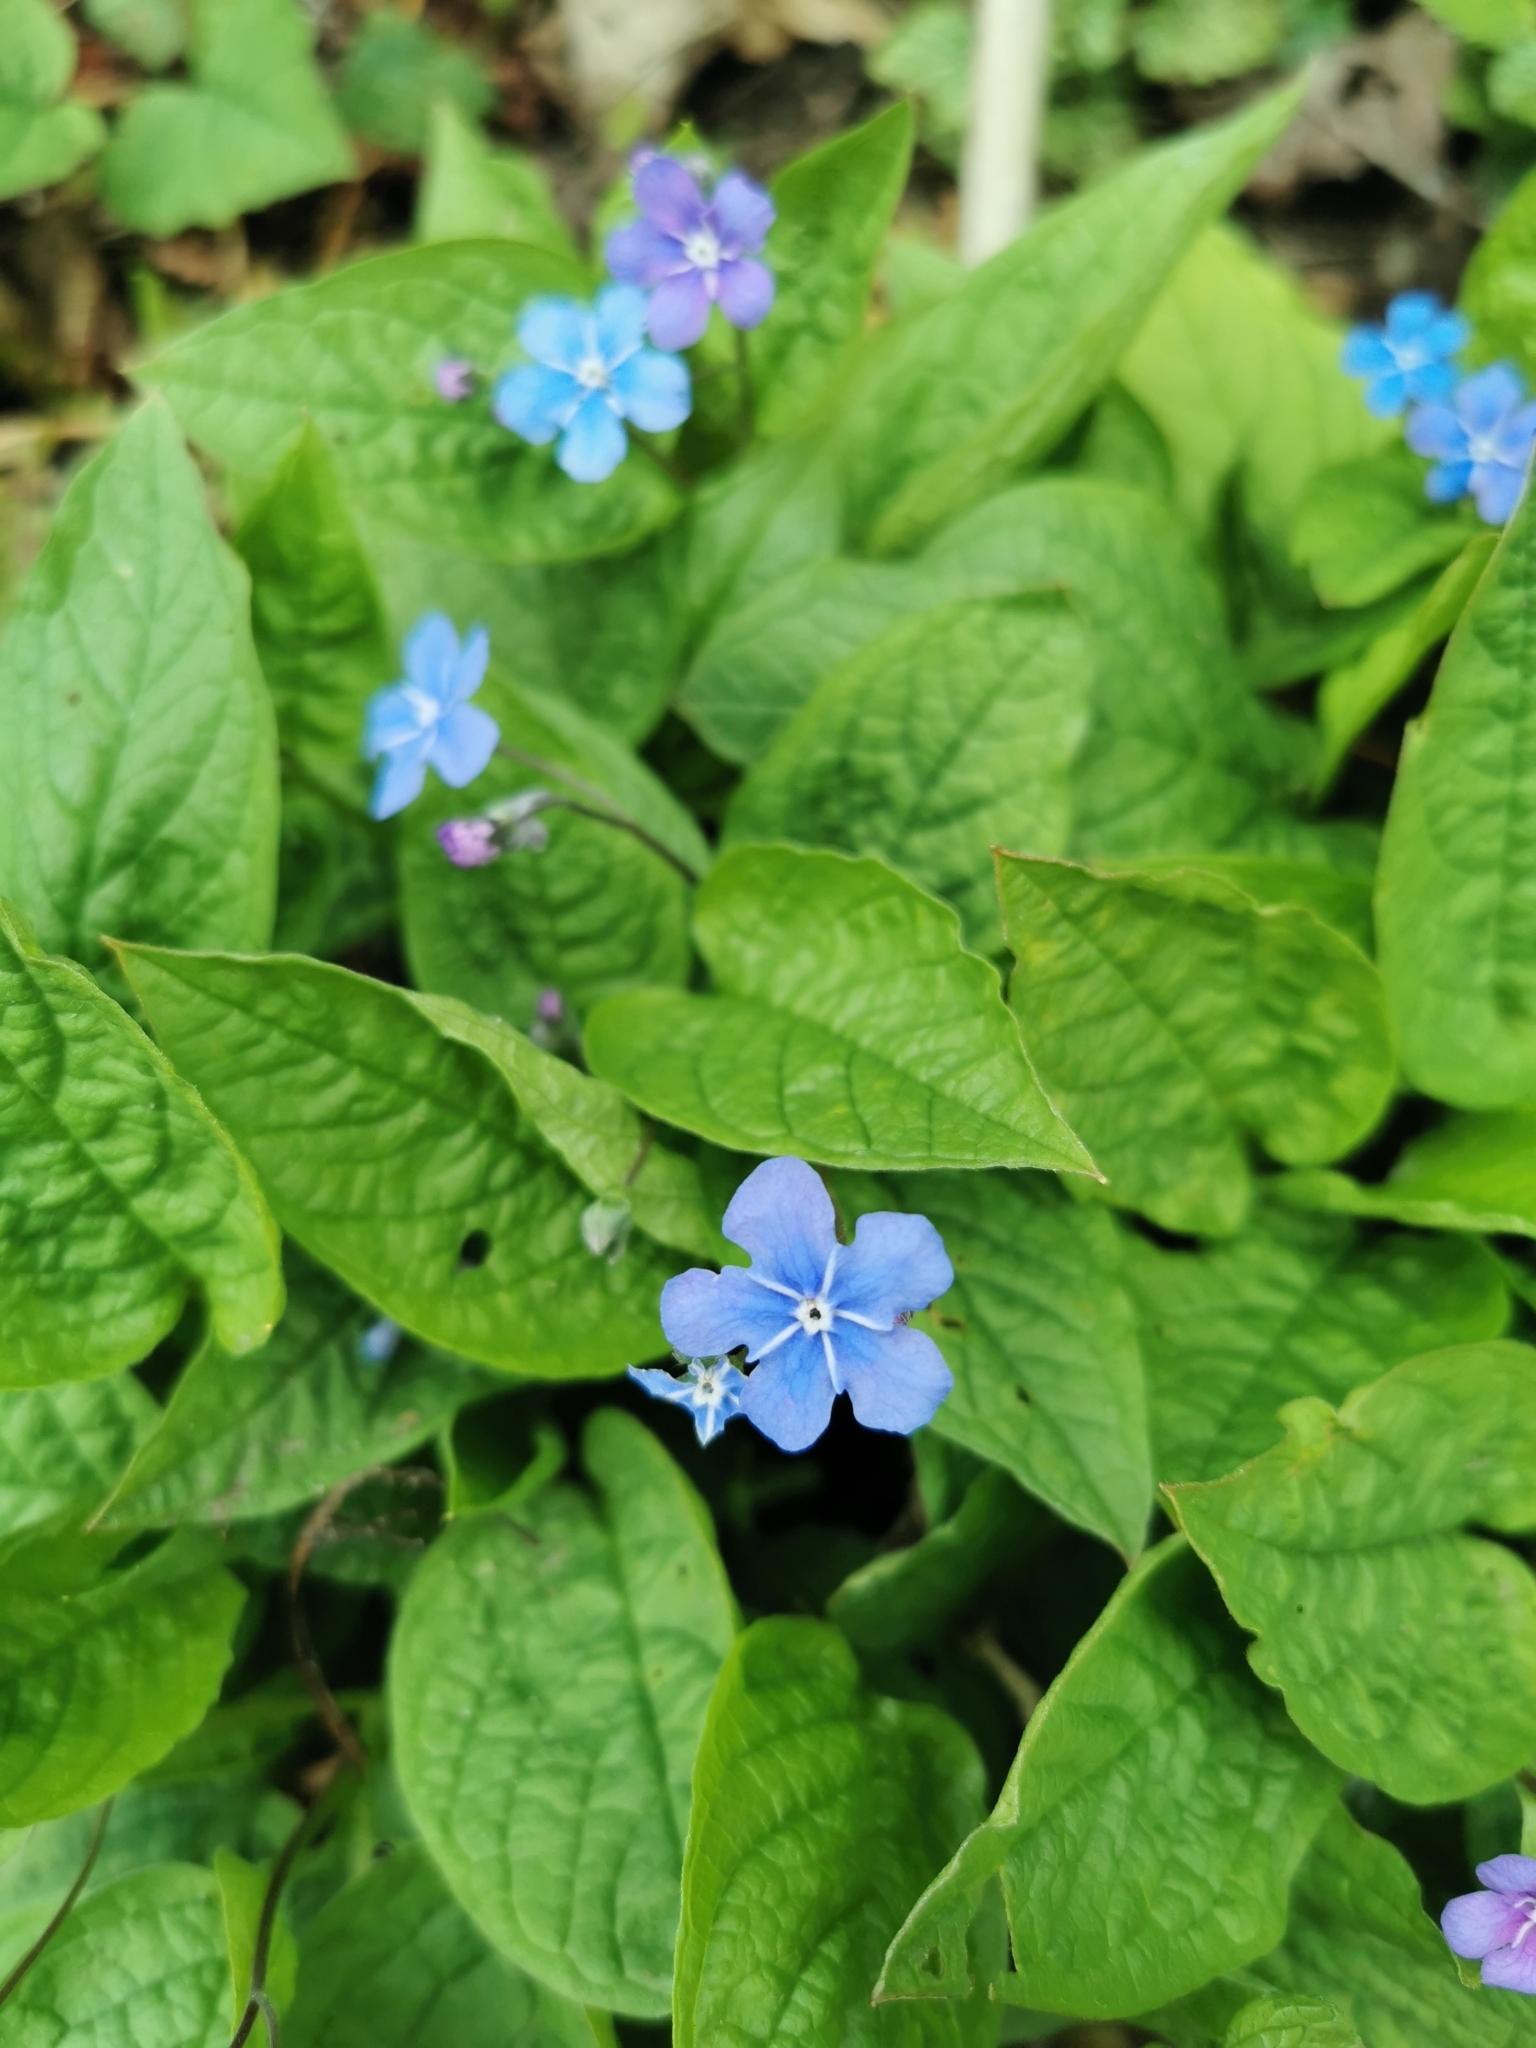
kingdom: Plantae
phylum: Tracheophyta
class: Magnoliopsida
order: Boraginales
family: Boraginaceae
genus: Omphalodes
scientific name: Omphalodes verna
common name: Blue-eyed-mary
